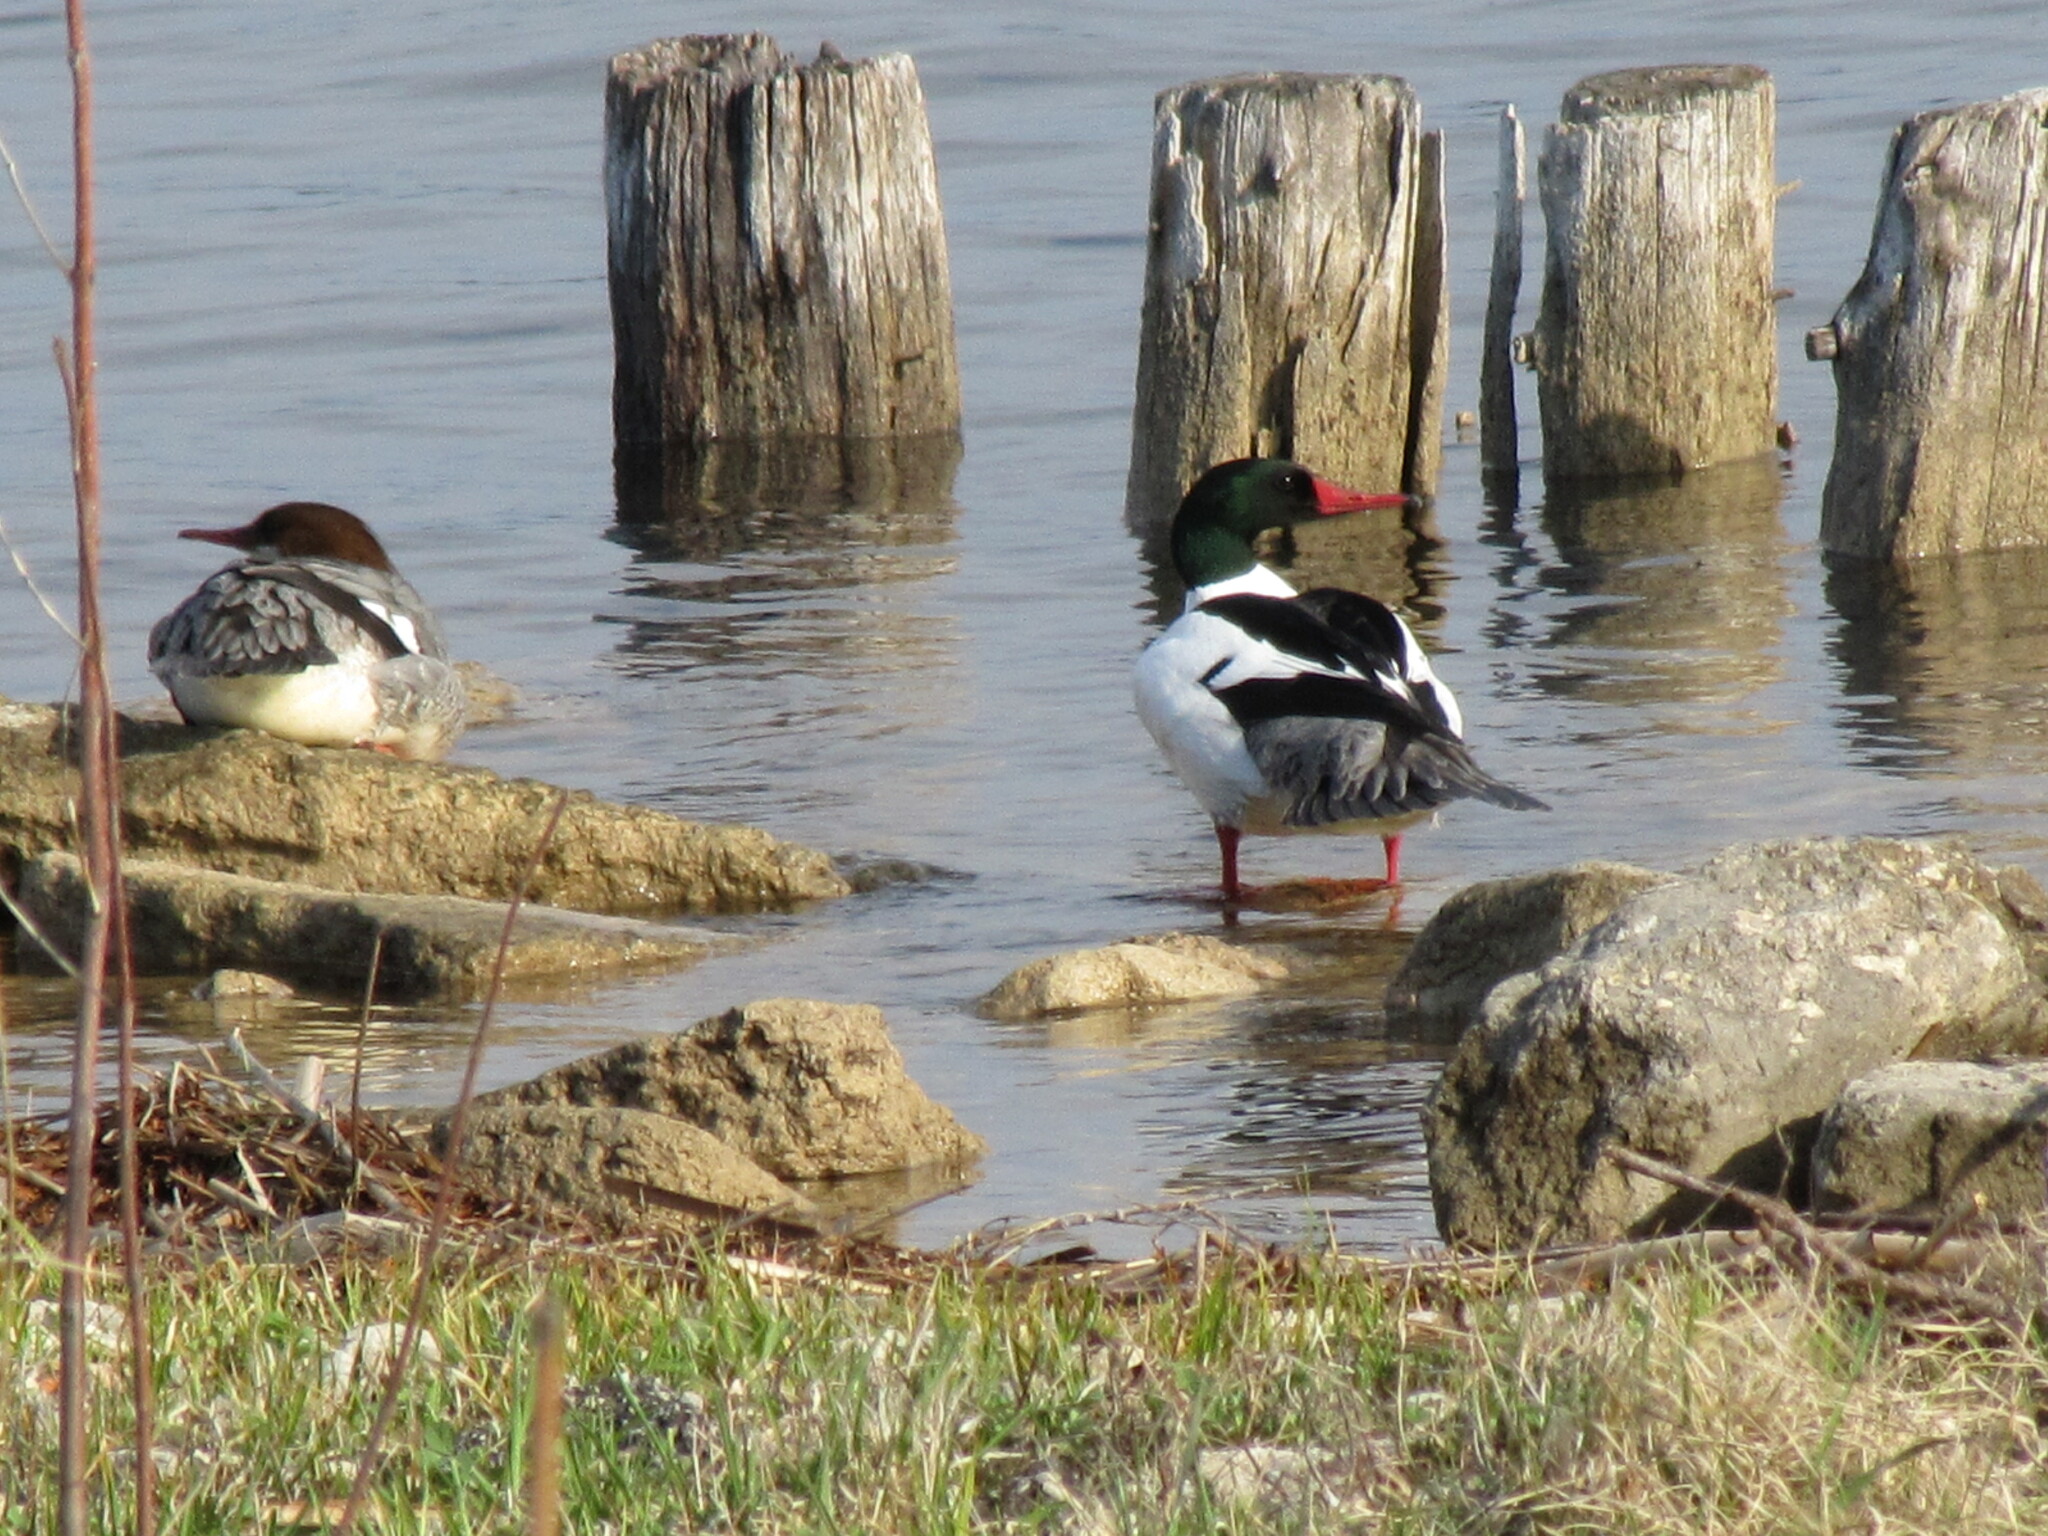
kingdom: Animalia
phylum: Chordata
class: Aves
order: Anseriformes
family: Anatidae
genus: Mergus
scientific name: Mergus merganser
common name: Common merganser
